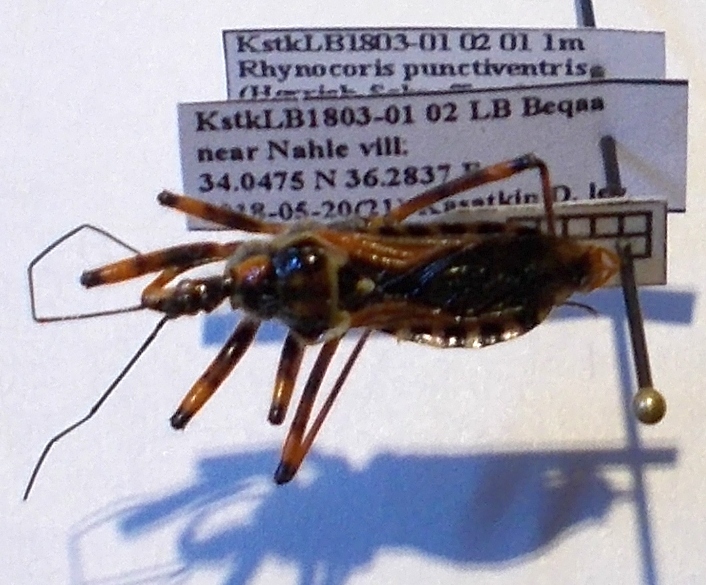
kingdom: Animalia
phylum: Arthropoda
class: Insecta
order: Hemiptera
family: Reduviidae
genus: Rhynocoris
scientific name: Rhynocoris punctiventris
